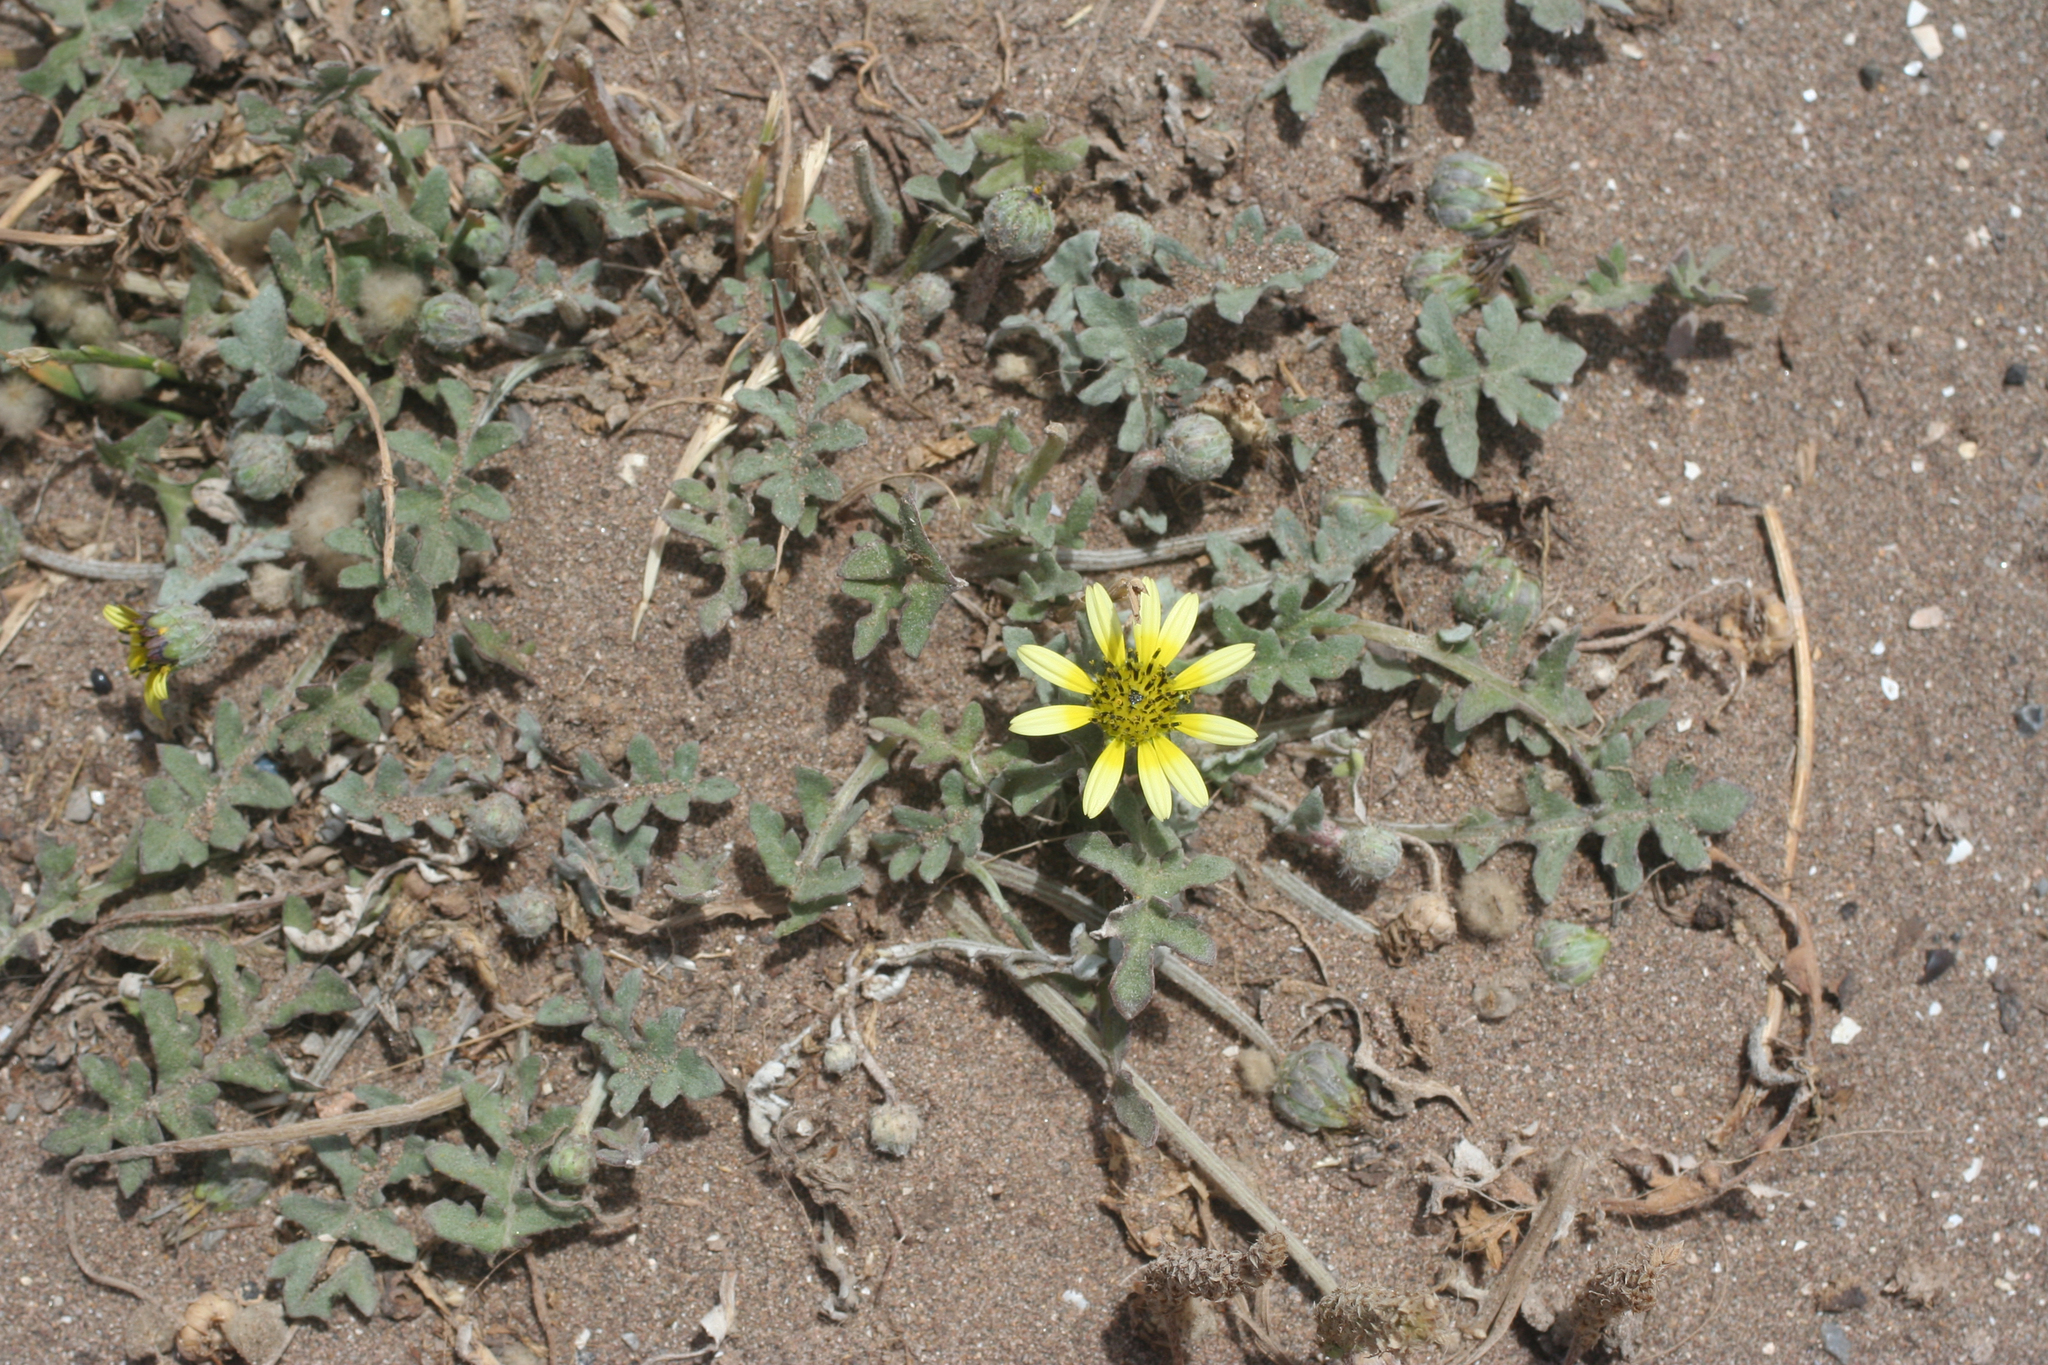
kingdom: Plantae
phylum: Tracheophyta
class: Magnoliopsida
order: Asterales
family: Asteraceae
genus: Arctotheca
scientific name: Arctotheca calendula
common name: Capeweed
